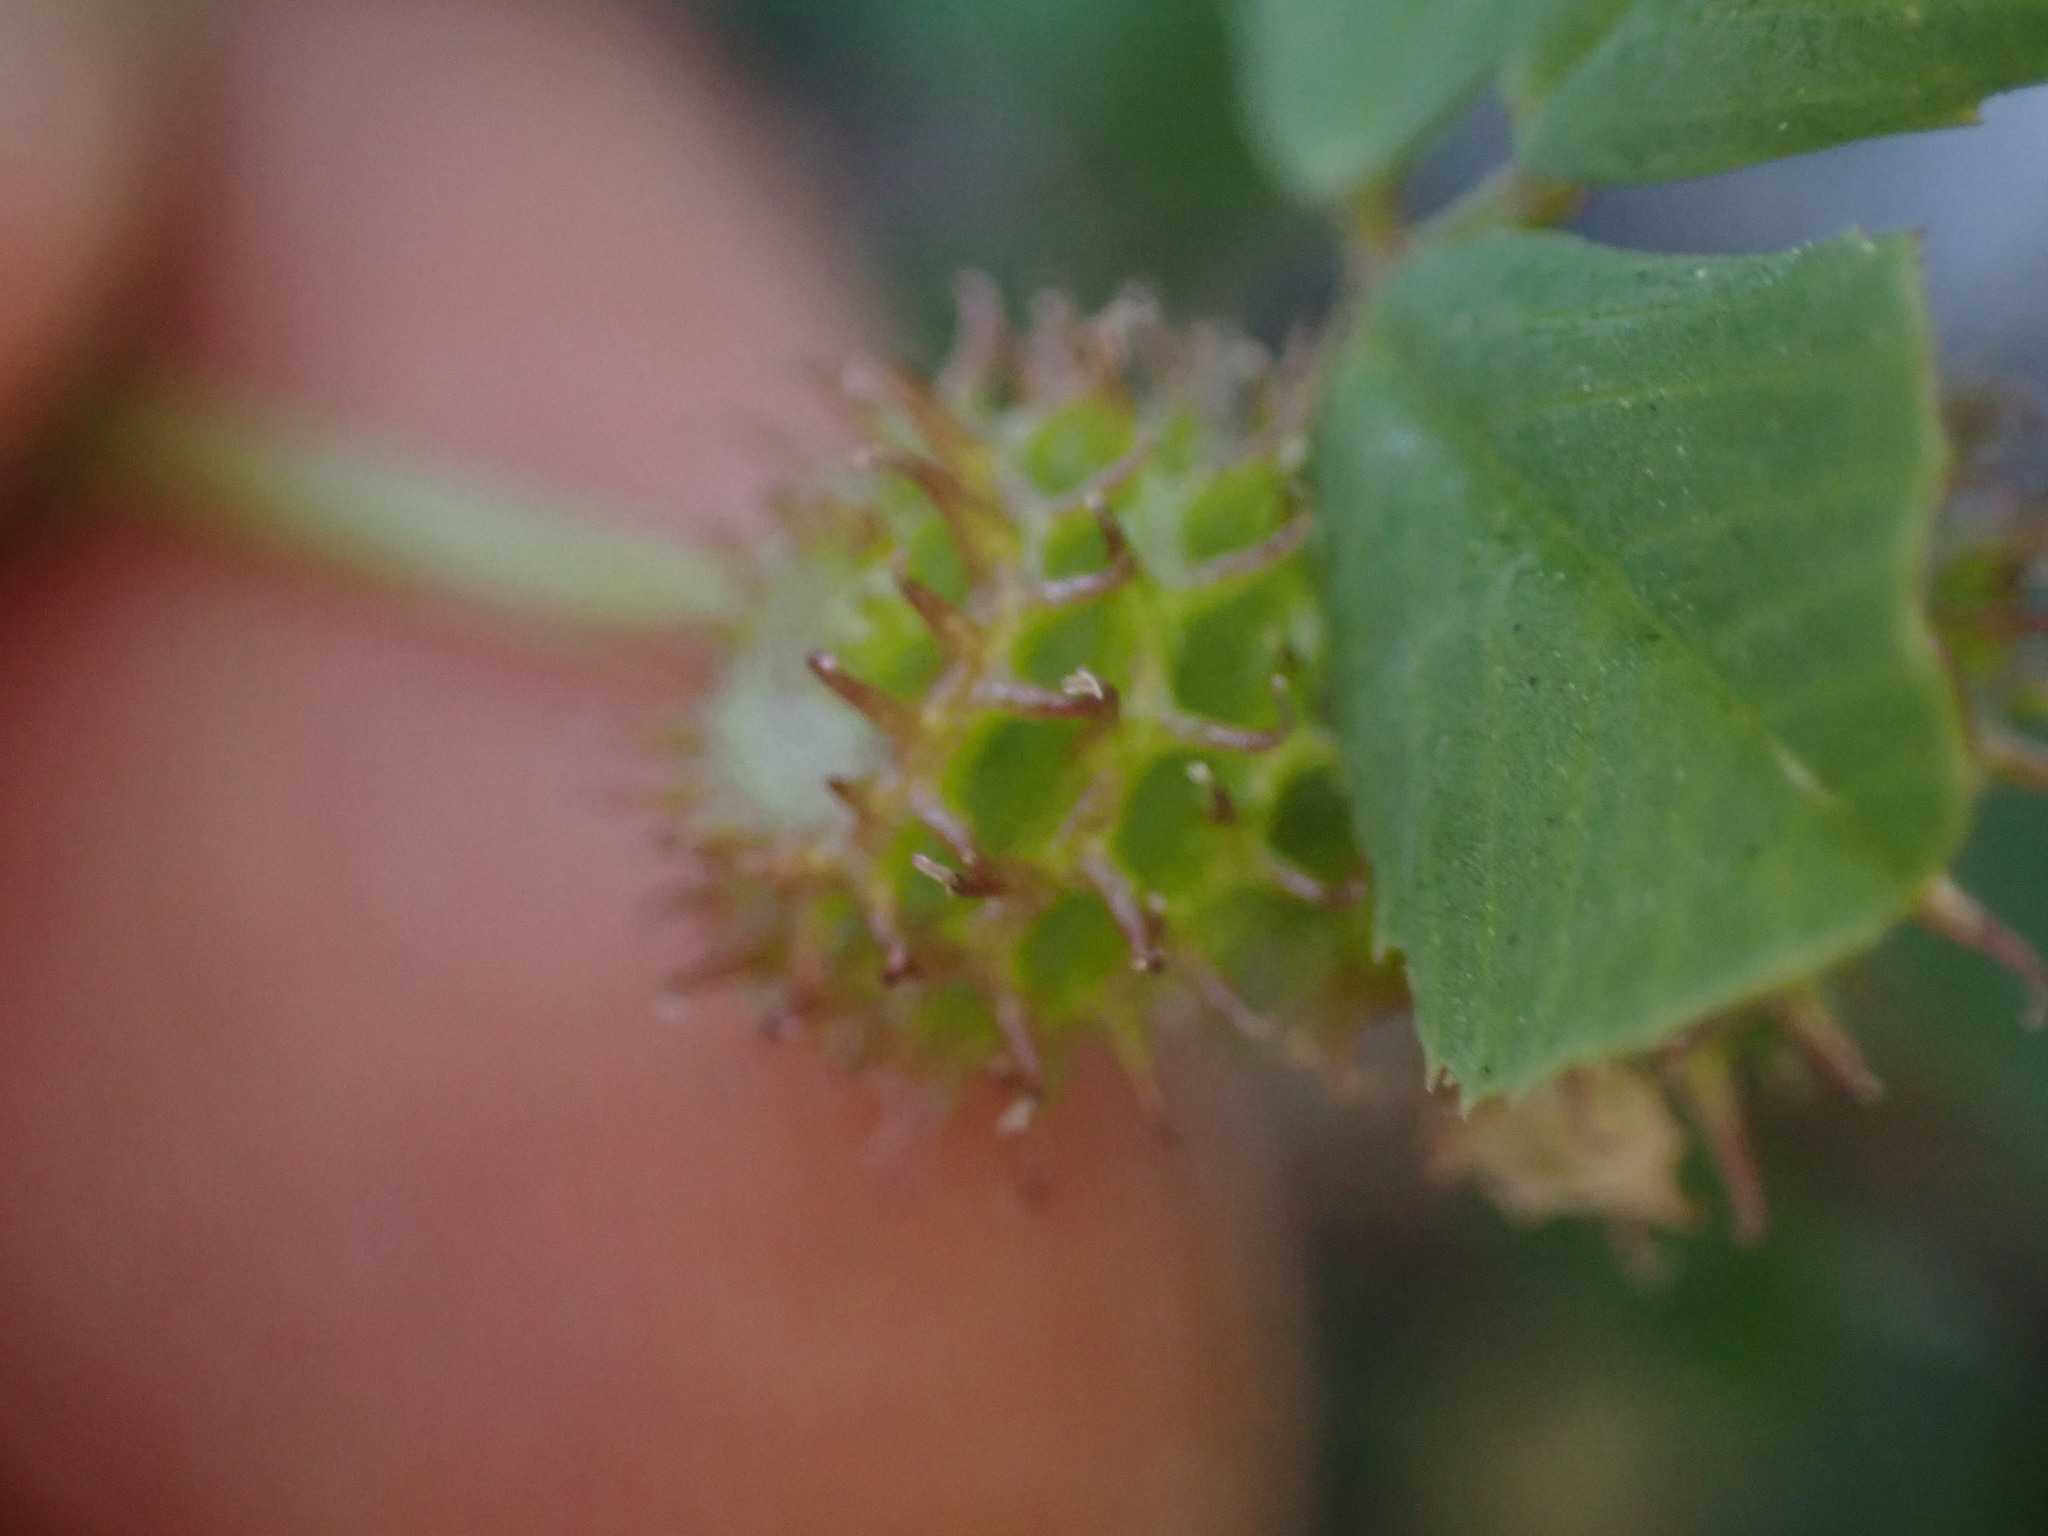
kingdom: Plantae
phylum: Tracheophyta
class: Magnoliopsida
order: Fabales
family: Fabaceae
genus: Medicago
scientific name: Medicago polymorpha
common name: Burclover
